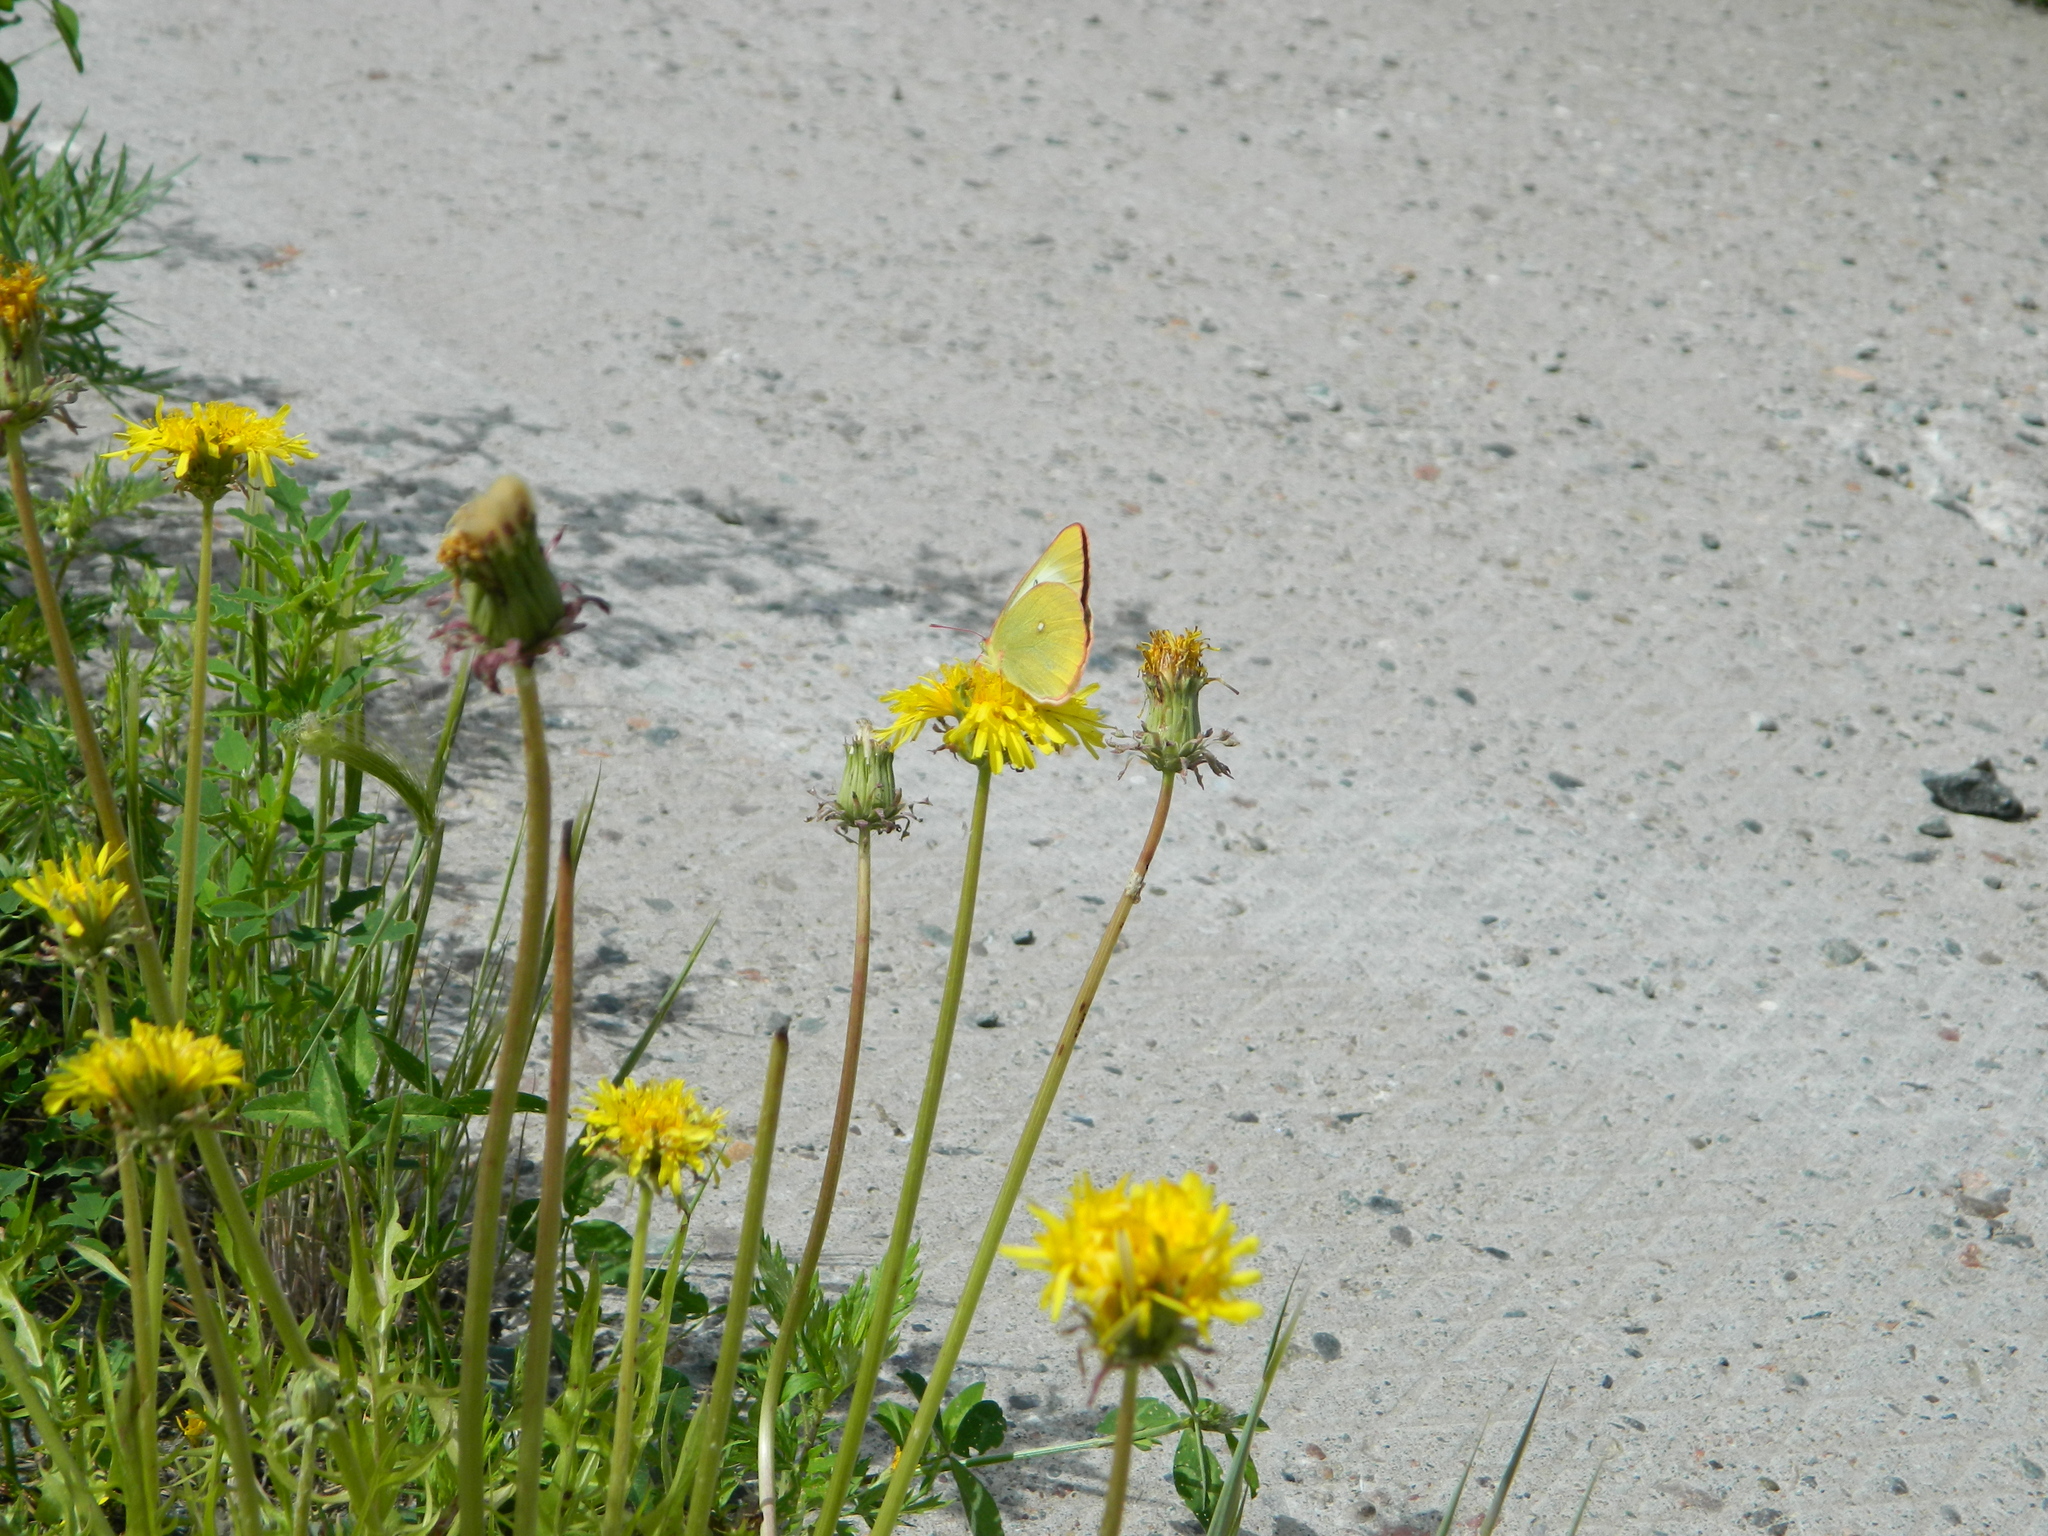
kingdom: Animalia
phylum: Arthropoda
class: Insecta
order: Lepidoptera
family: Pieridae
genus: Colias
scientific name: Colias palaeno
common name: Moorland clouded yellow
